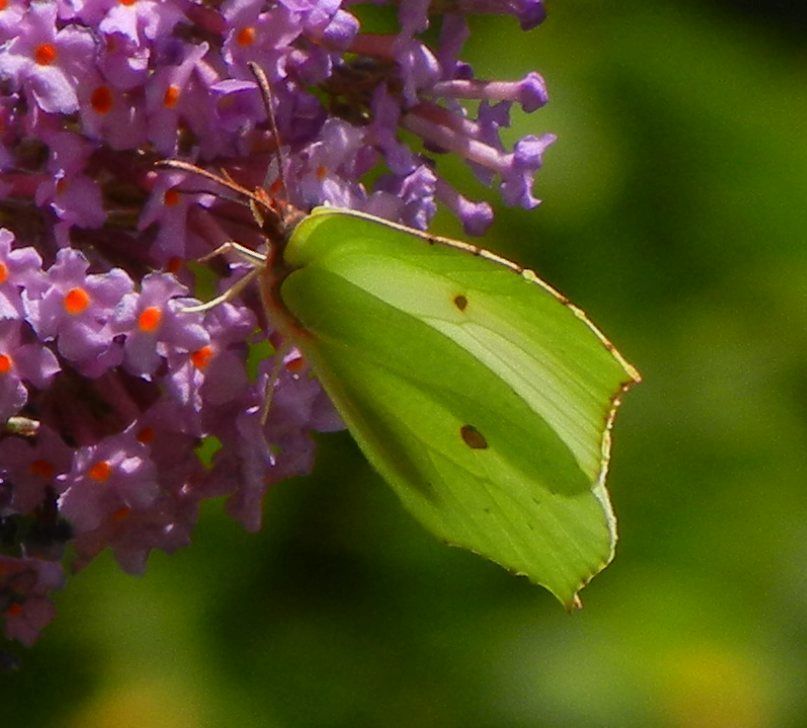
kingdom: Animalia
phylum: Arthropoda
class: Insecta
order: Lepidoptera
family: Pieridae
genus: Gonepteryx
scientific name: Gonepteryx rhamni
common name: Brimstone
